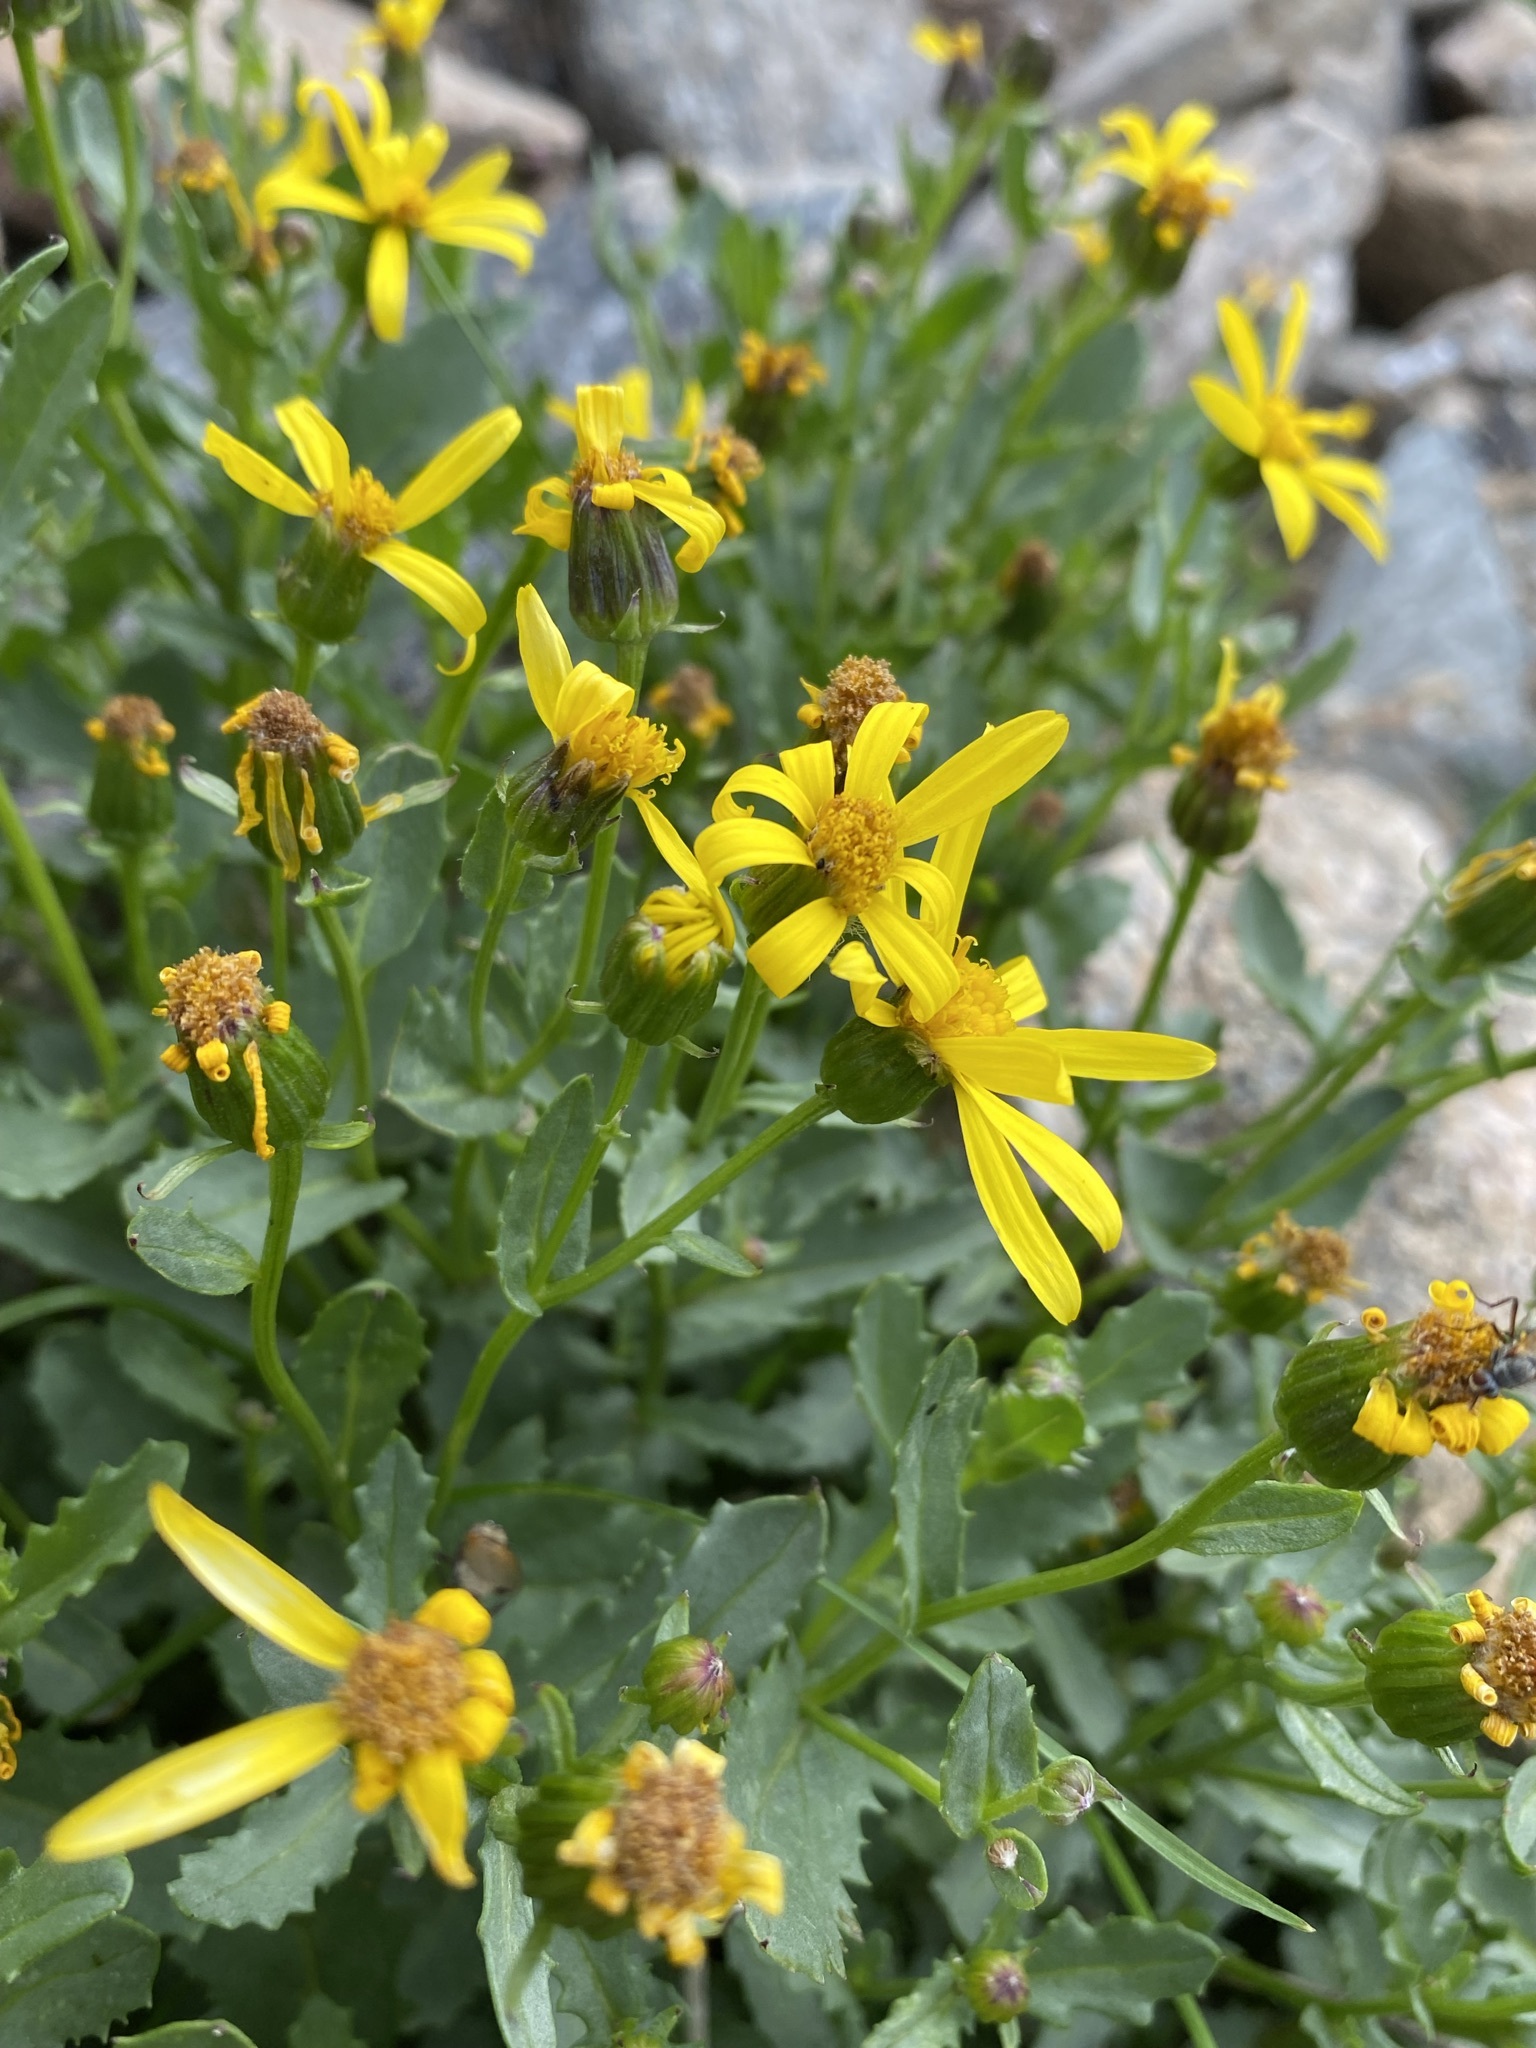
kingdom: Plantae
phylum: Tracheophyta
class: Magnoliopsida
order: Asterales
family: Asteraceae
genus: Senecio
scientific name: Senecio fremontii
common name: Fremont's groundsel
